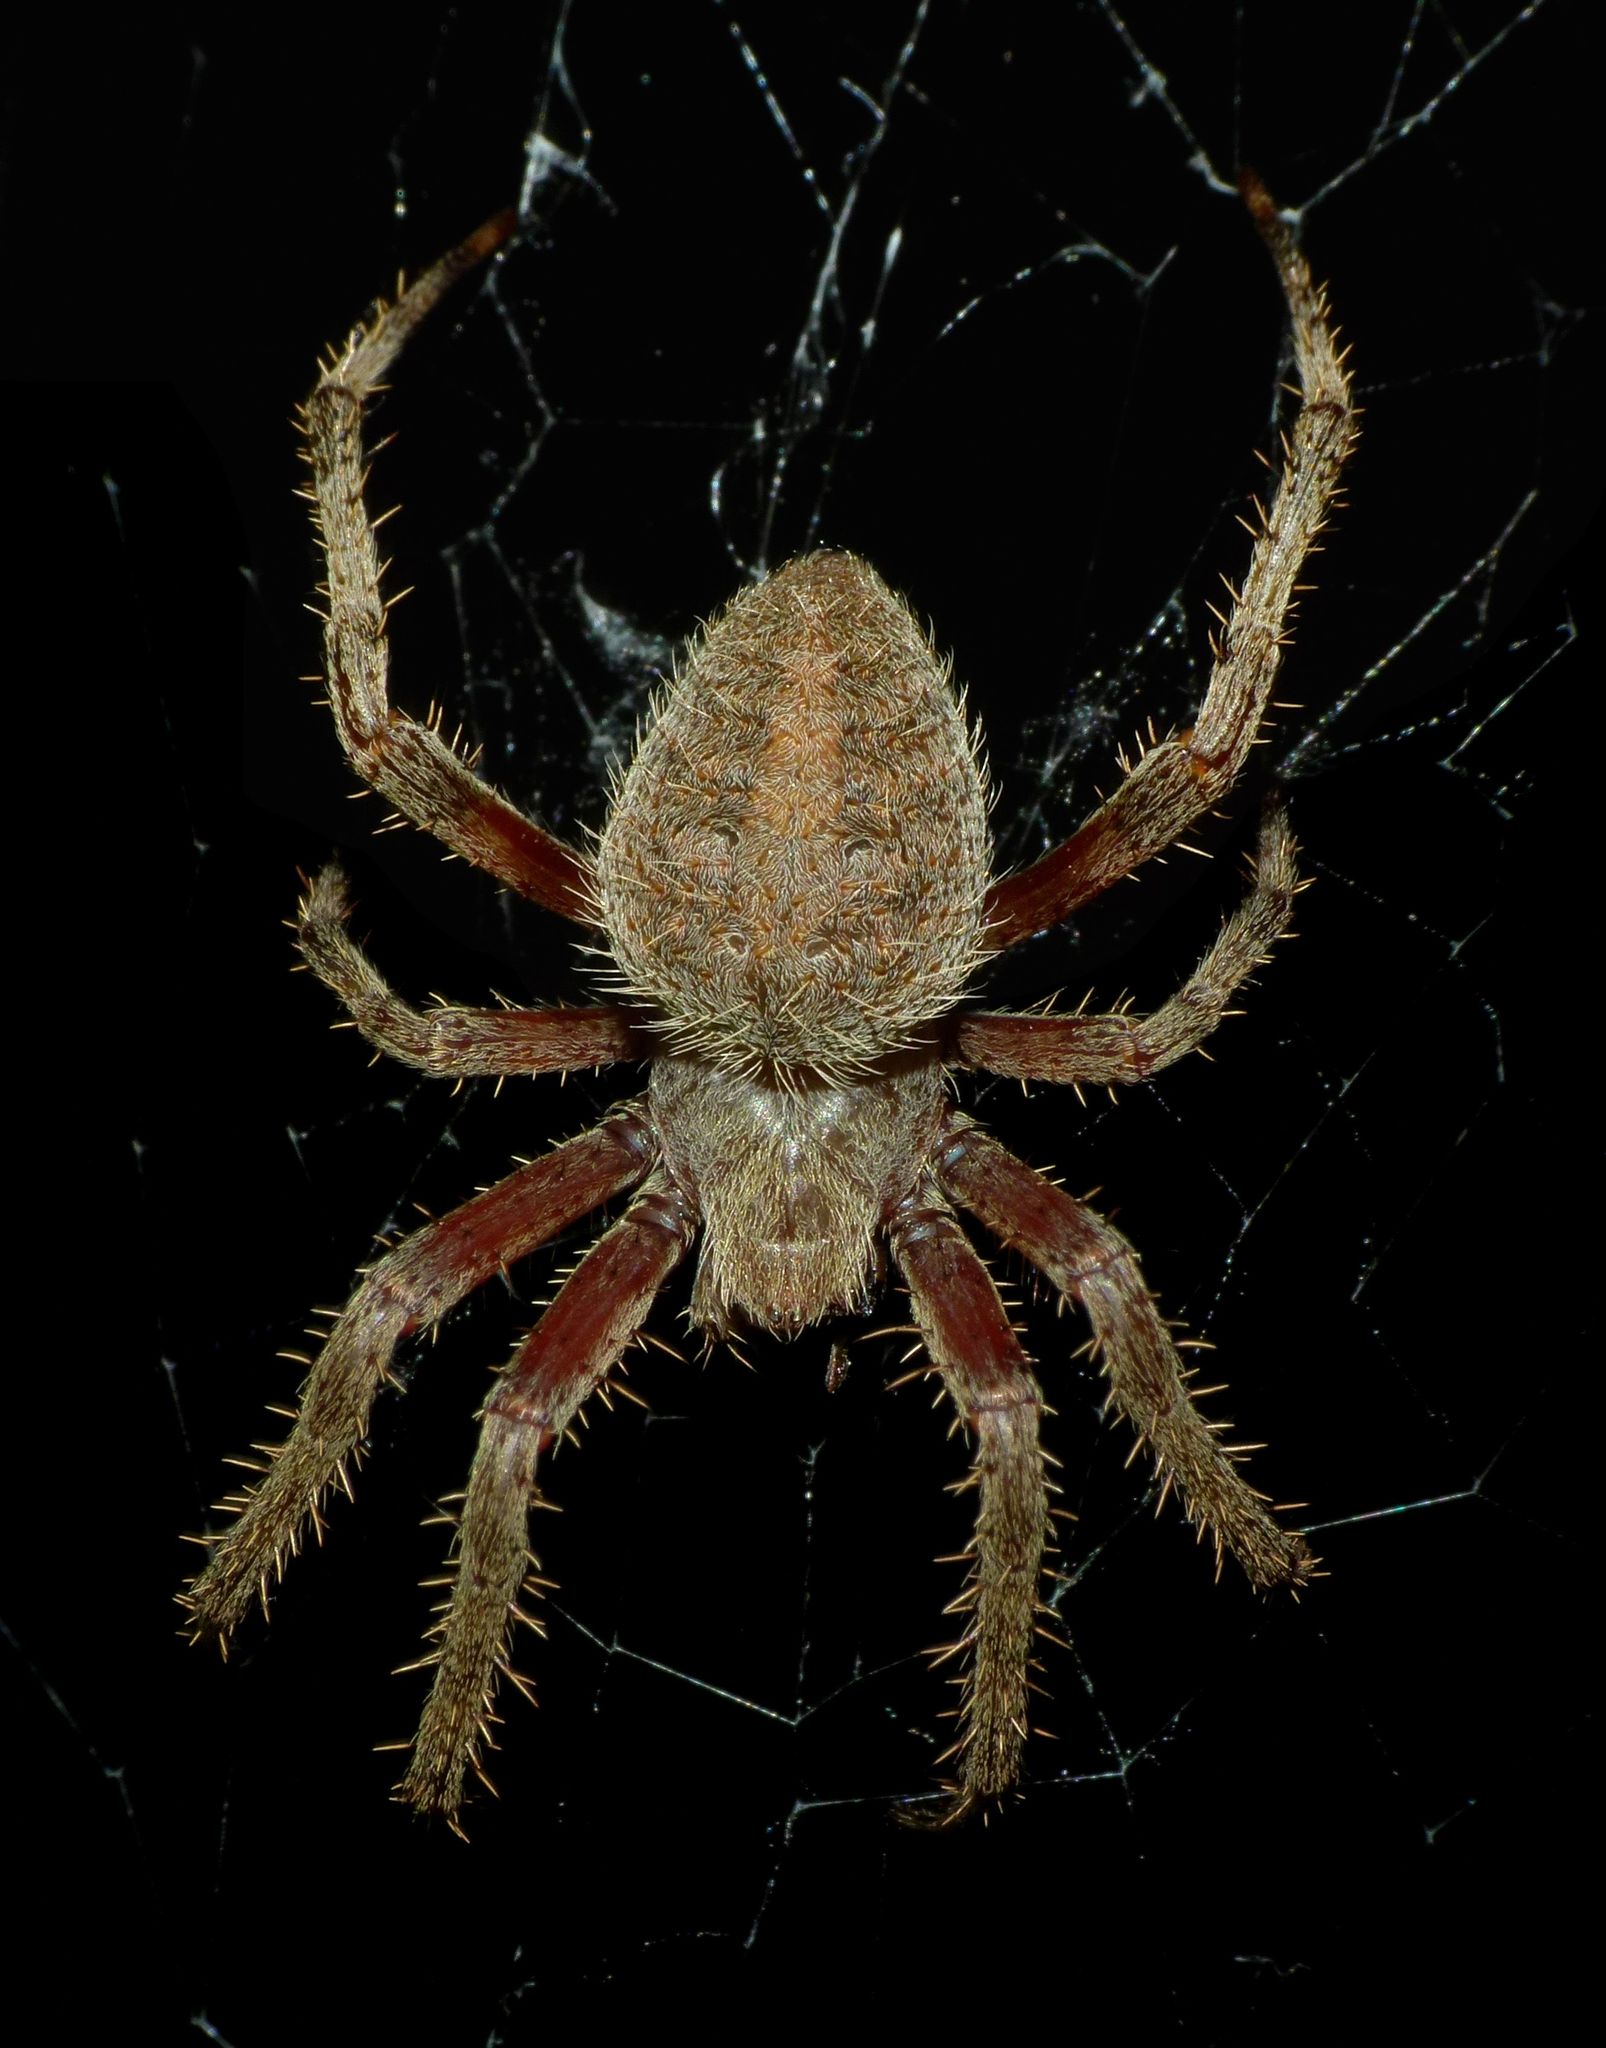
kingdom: Animalia
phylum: Arthropoda
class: Arachnida
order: Araneae
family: Araneidae
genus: Neoscona
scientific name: Neoscona crucifera
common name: Spotted orbweaver
